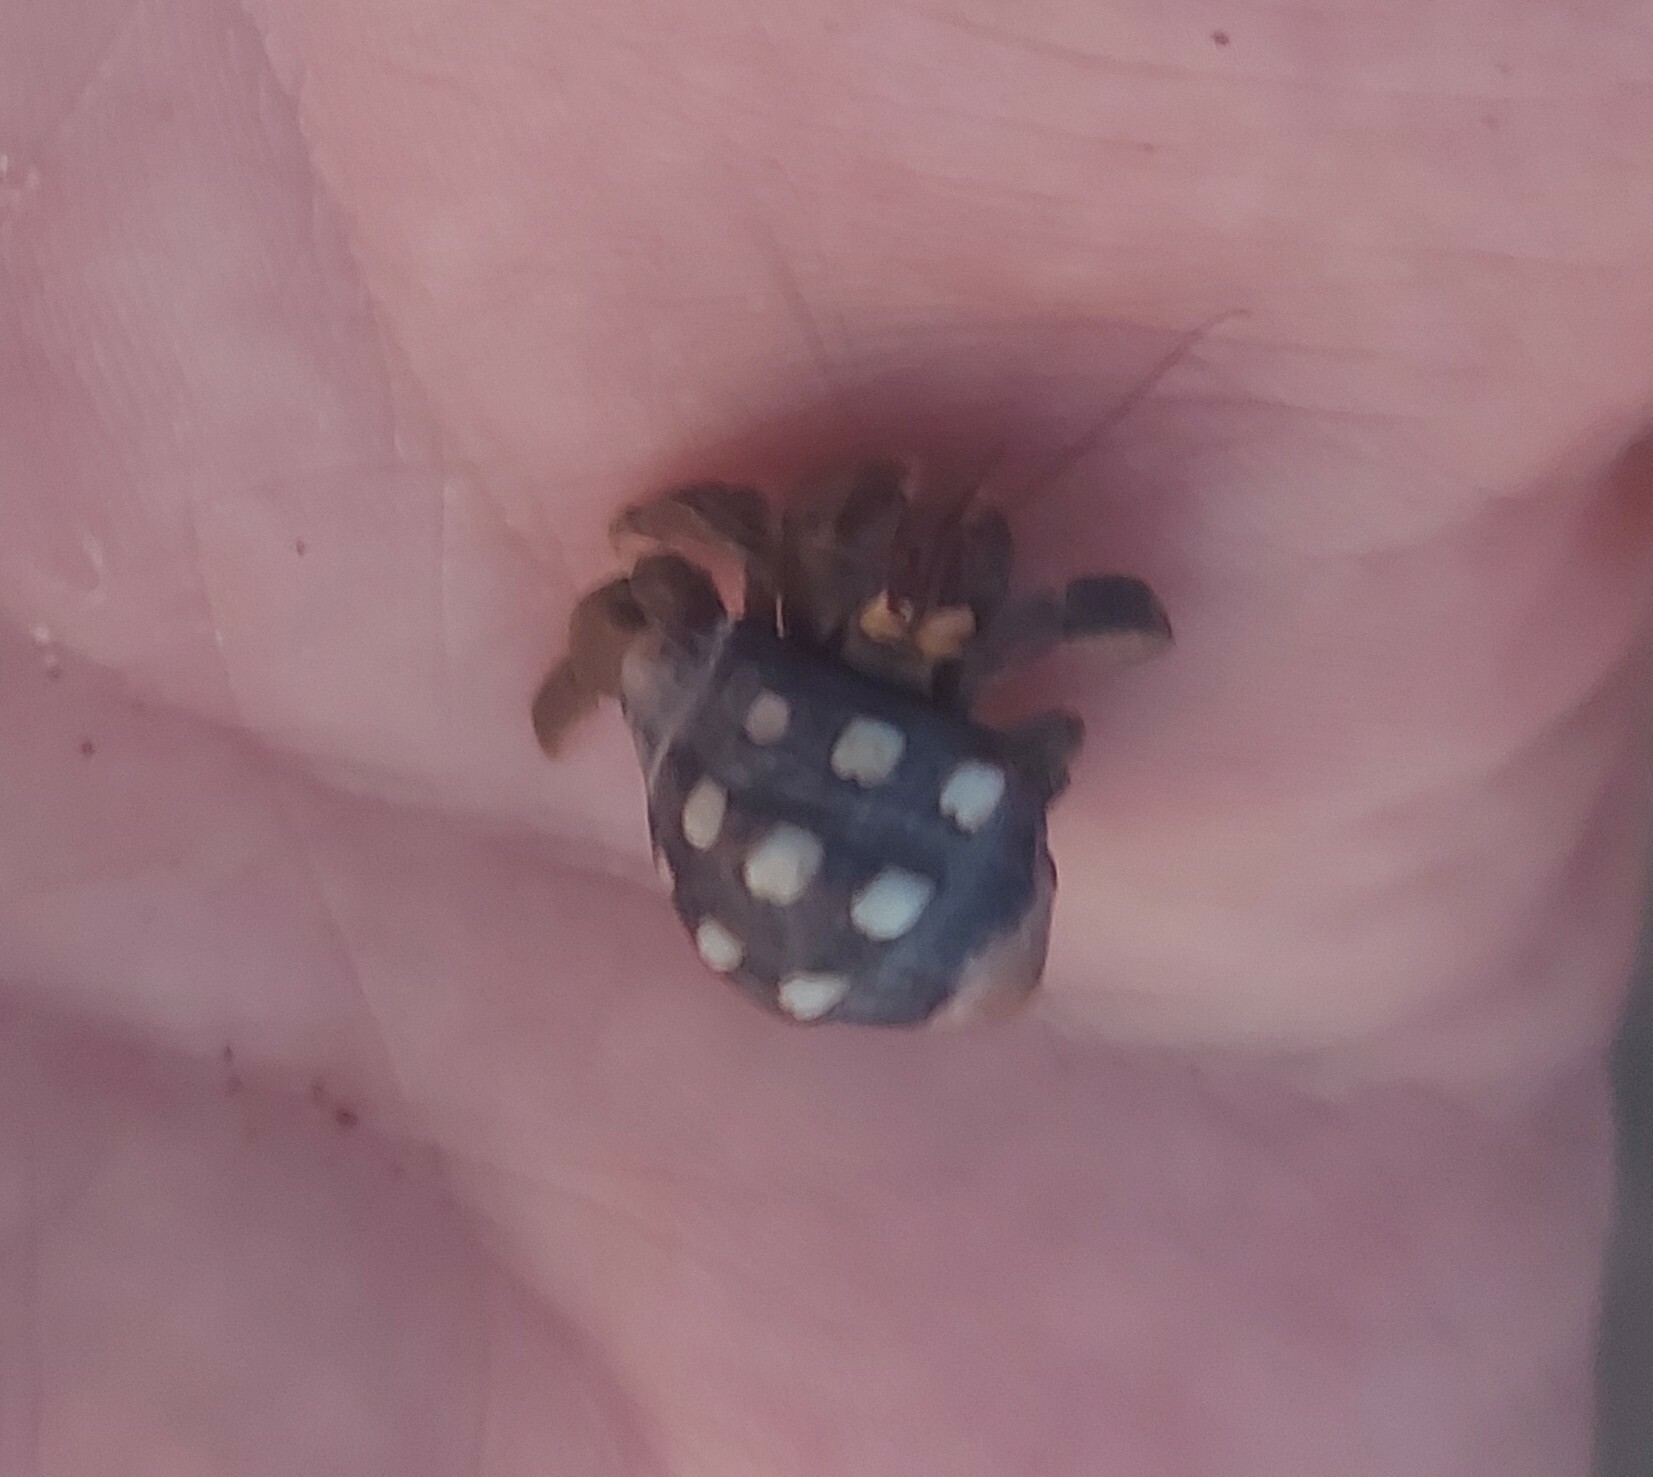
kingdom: Animalia
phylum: Arthropoda
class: Malacostraca
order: Decapoda
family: Coenobitidae
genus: Coenobita
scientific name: Coenobita compressus
